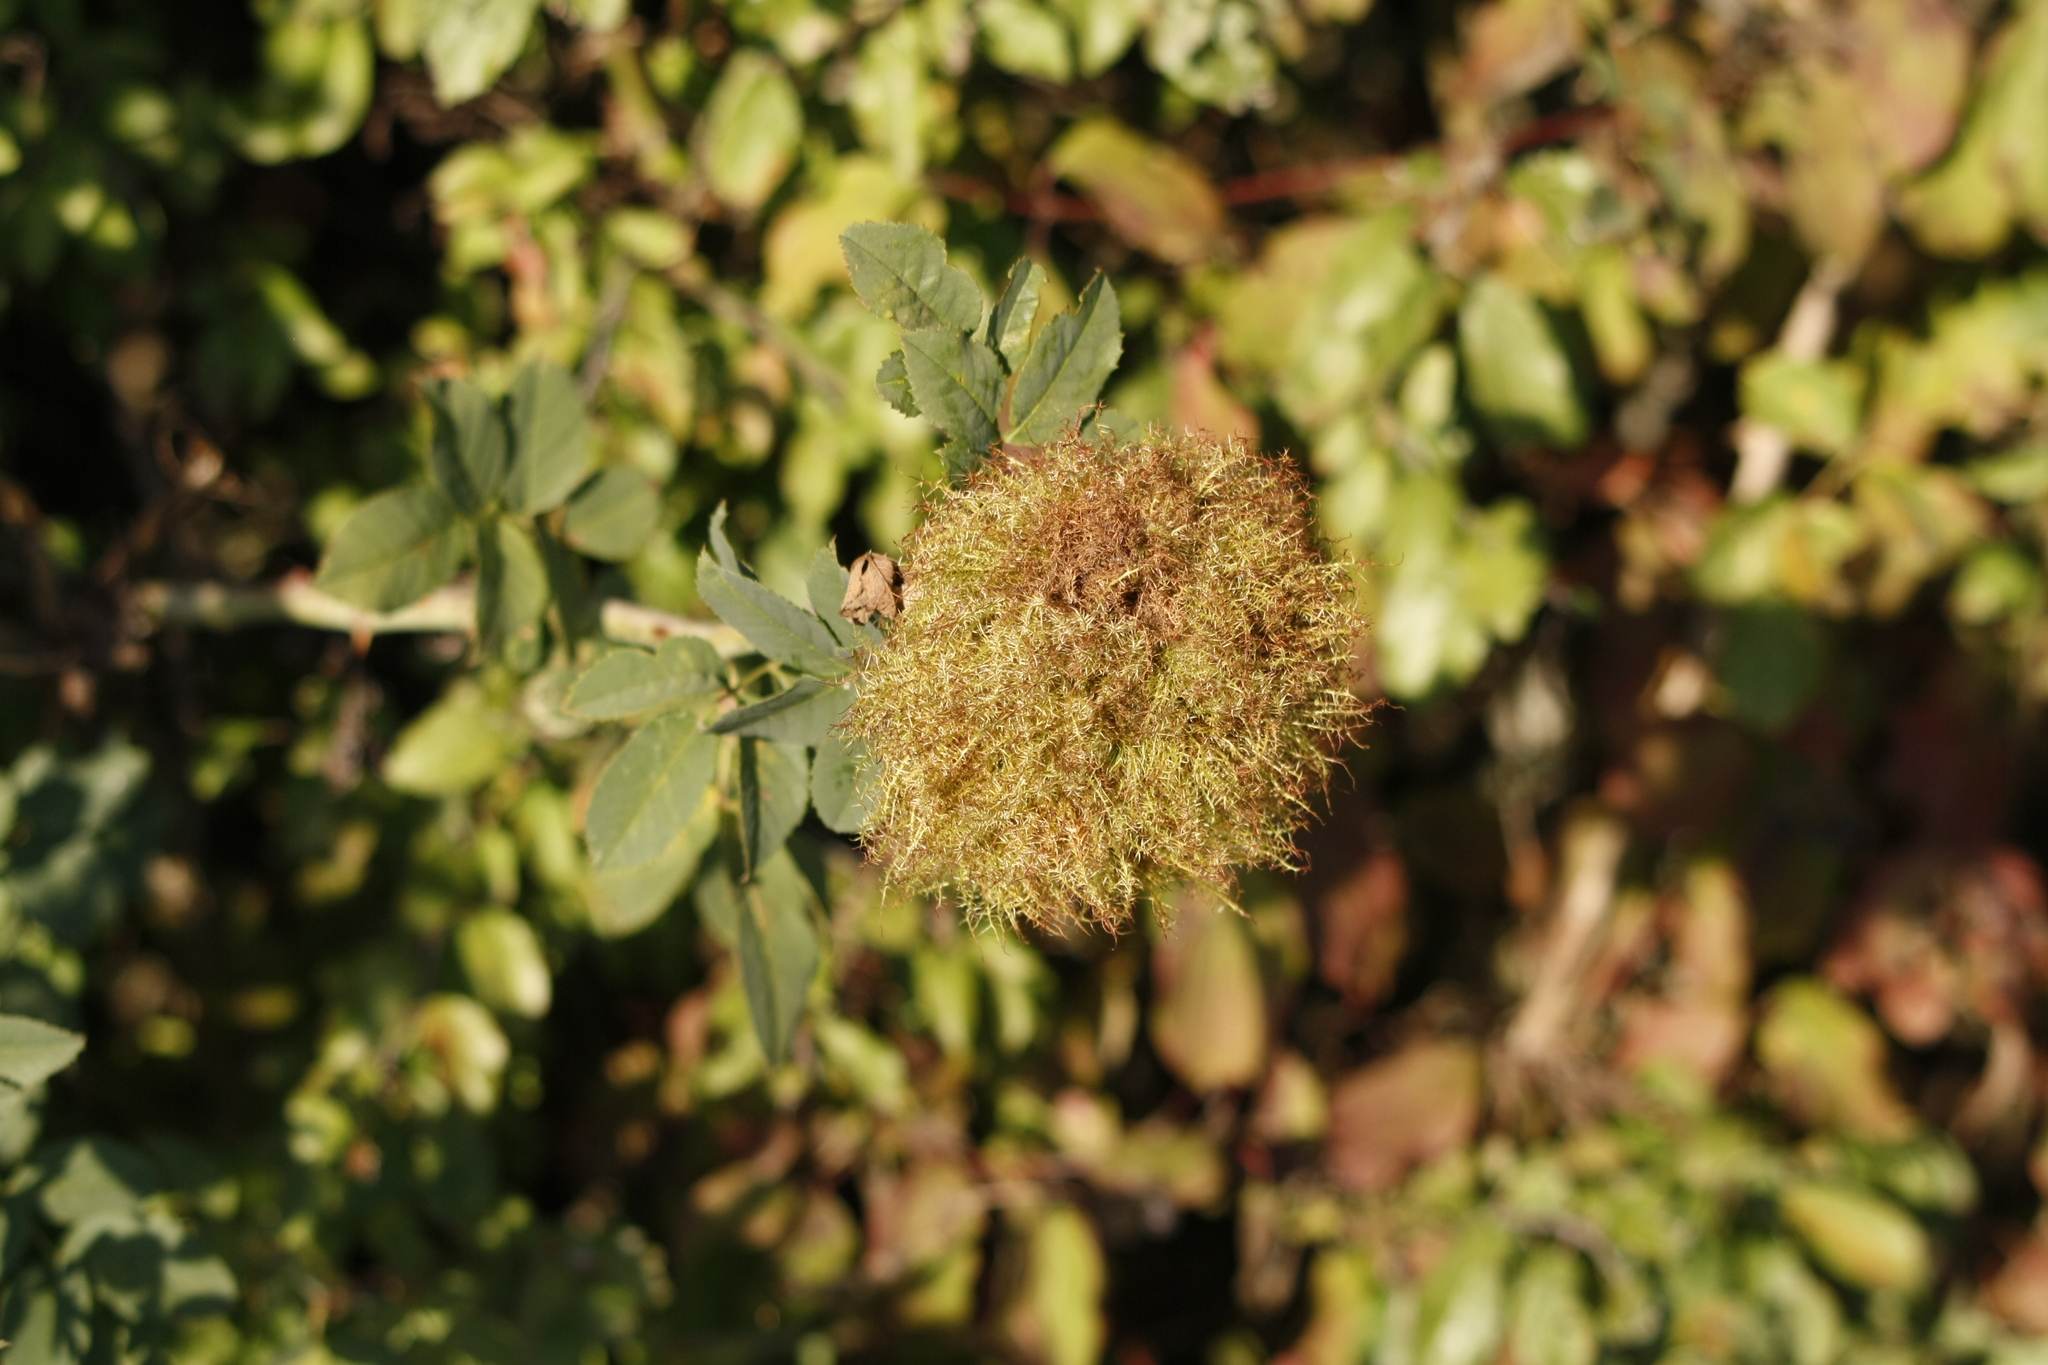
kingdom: Animalia
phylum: Arthropoda
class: Insecta
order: Hymenoptera
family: Cynipidae
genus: Diplolepis
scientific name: Diplolepis rosae
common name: Bedeguar gall
